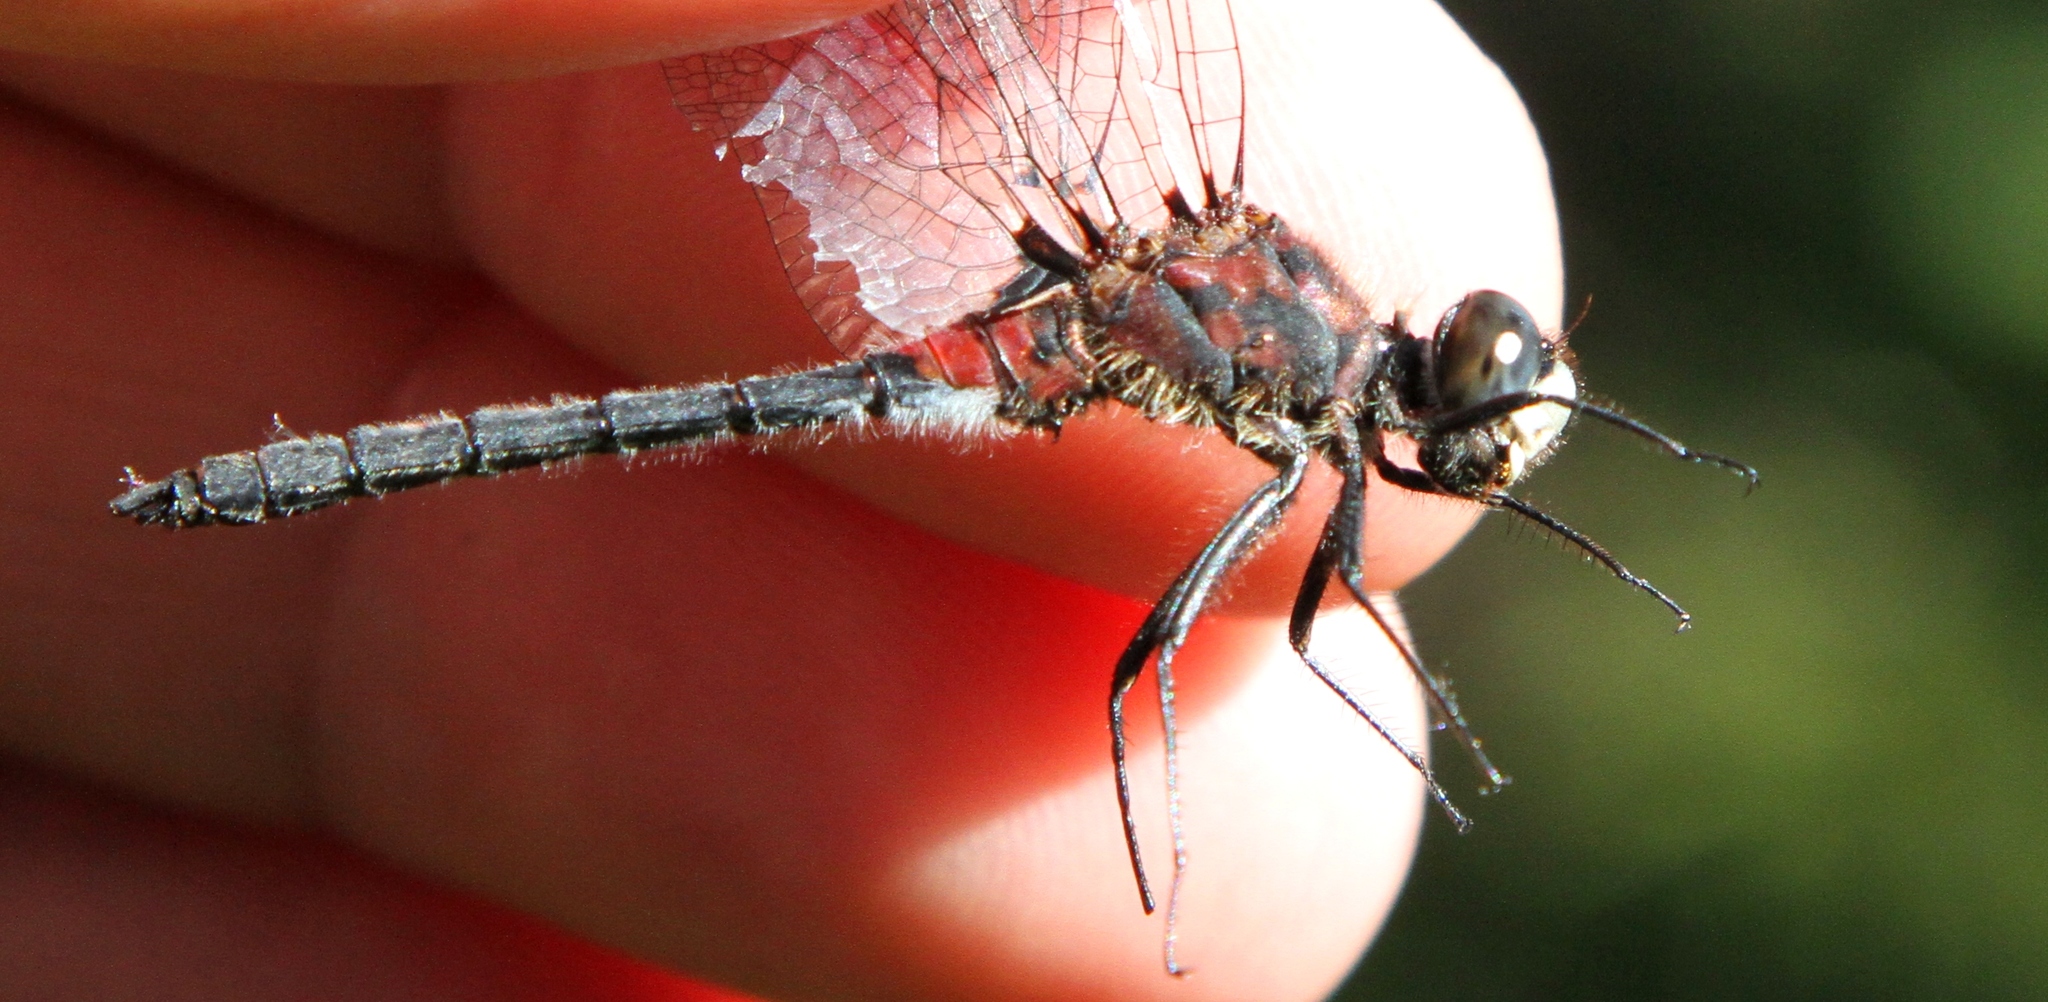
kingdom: Animalia
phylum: Arthropoda
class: Insecta
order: Odonata
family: Libellulidae
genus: Leucorrhinia
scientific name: Leucorrhinia proxima
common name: Belted whiteface
